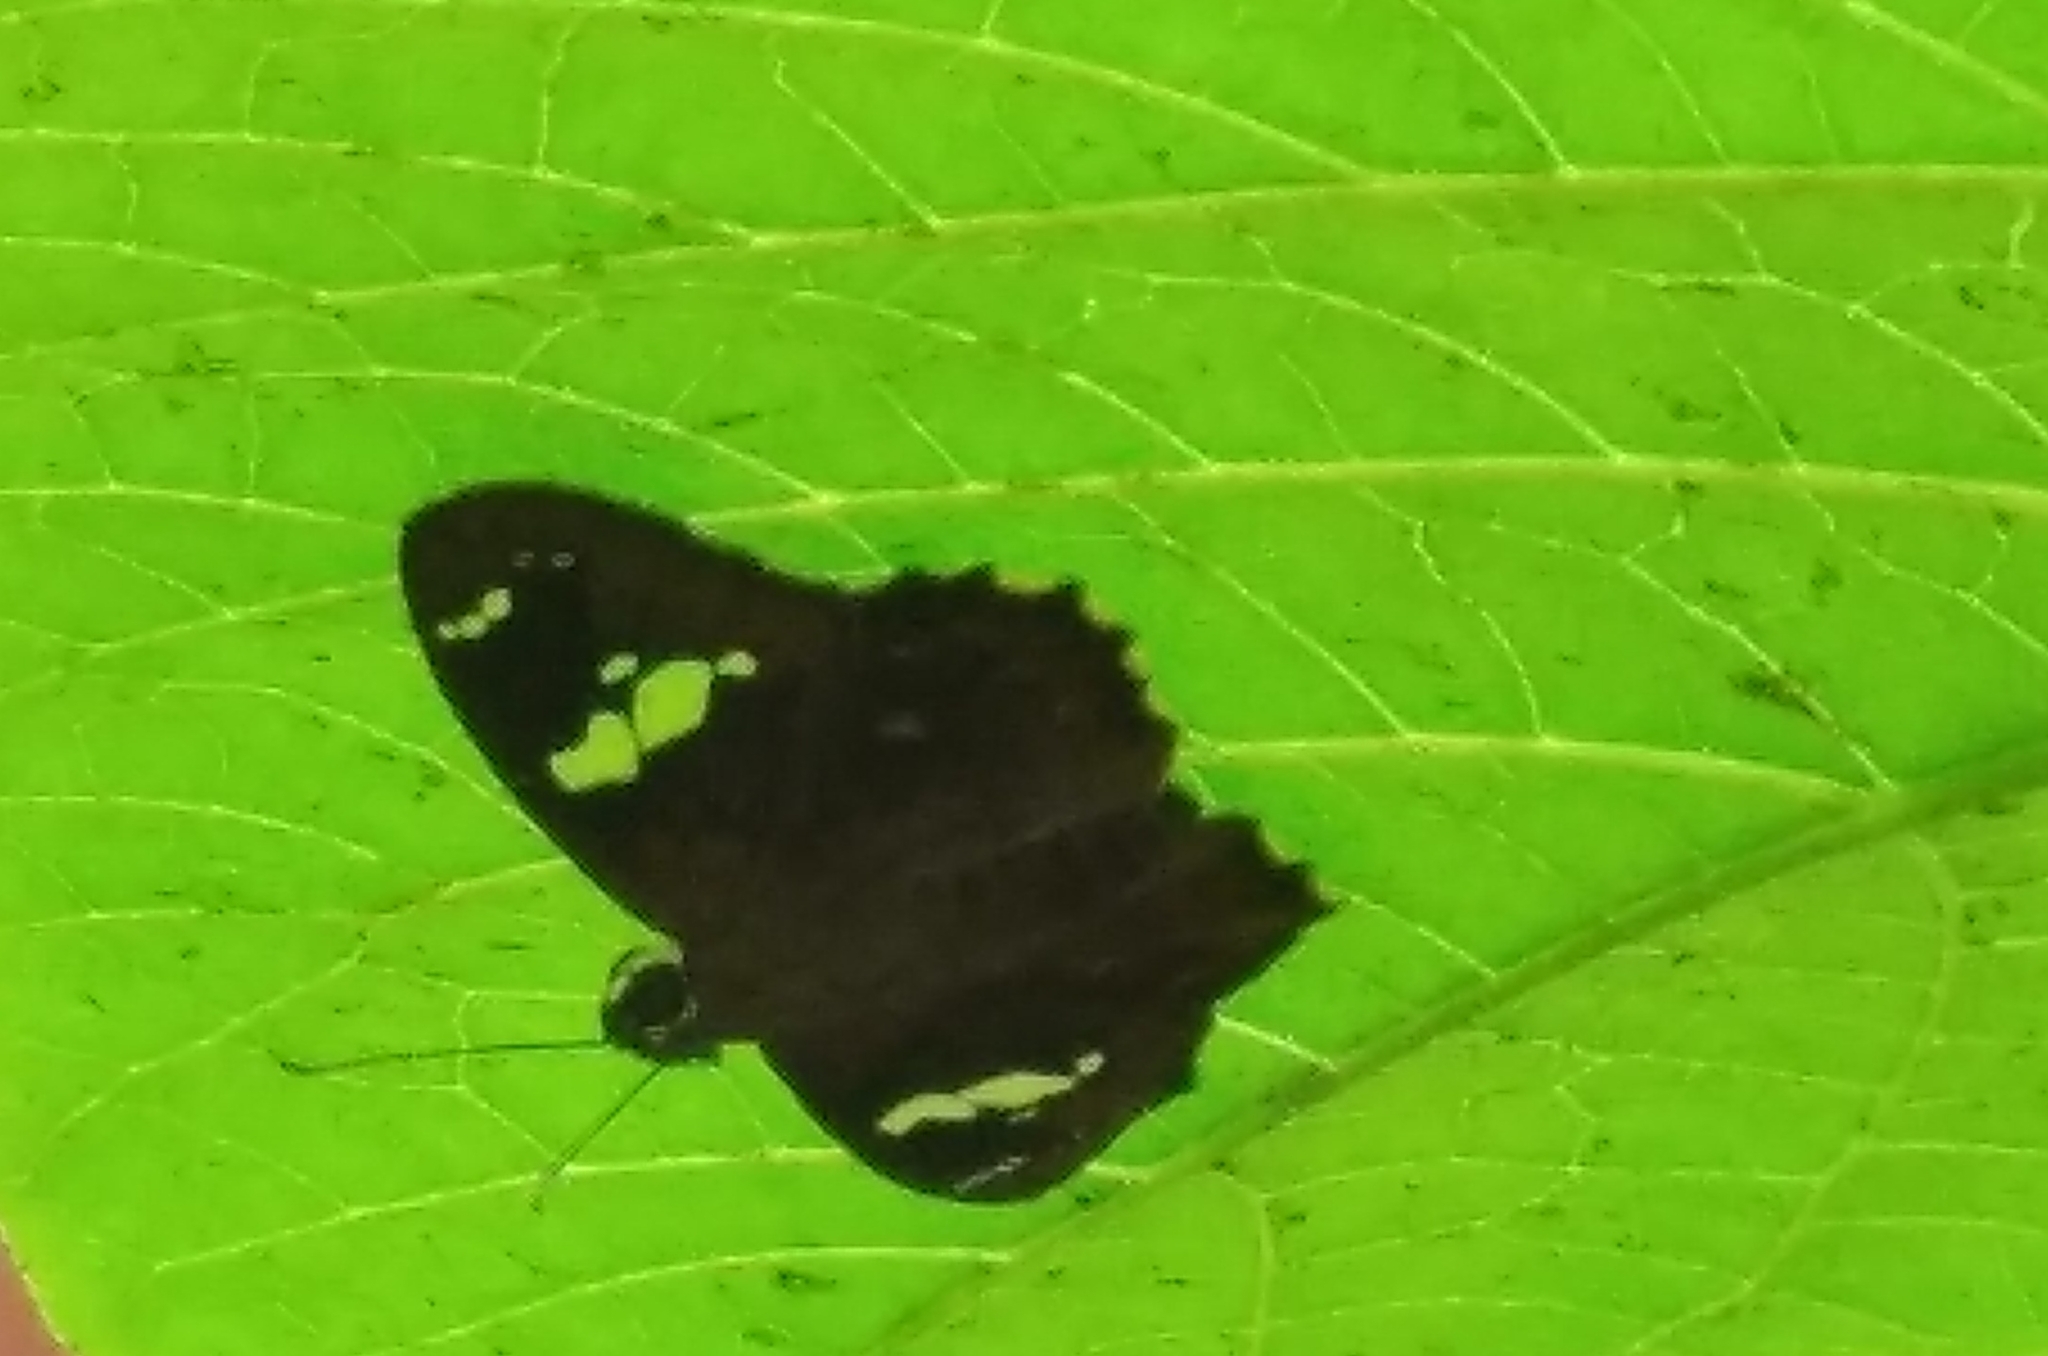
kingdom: Animalia
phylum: Arthropoda
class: Insecta
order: Lepidoptera
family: Hesperiidae
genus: Celaenorrhinus
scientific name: Celaenorrhinus putra
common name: Restricted spotted flat
